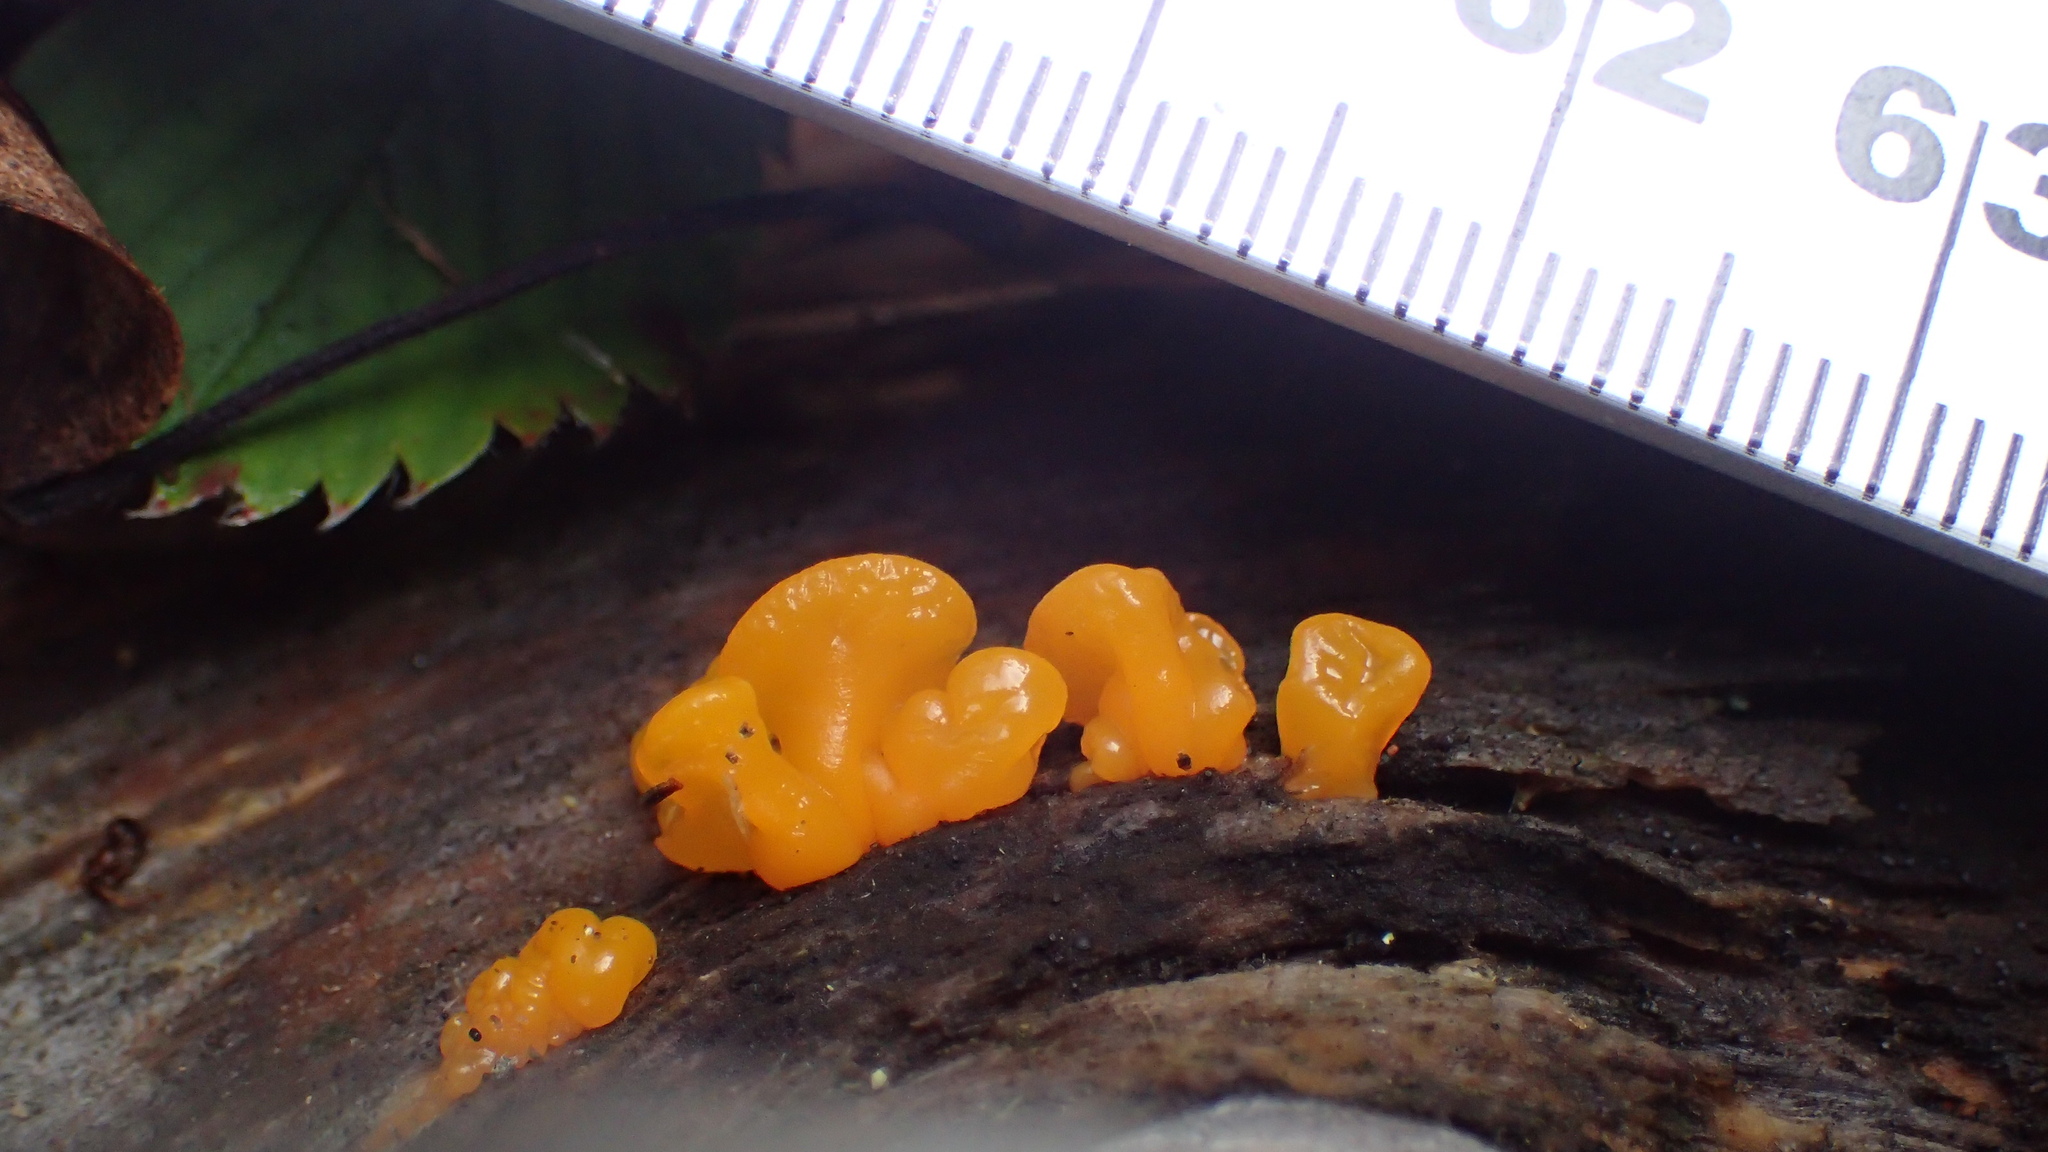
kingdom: Fungi
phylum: Basidiomycota
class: Dacrymycetes
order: Dacrymycetales
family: Dacrymycetaceae
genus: Dacrymyces
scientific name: Dacrymyces chrysospermus
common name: Orange jelly spot
